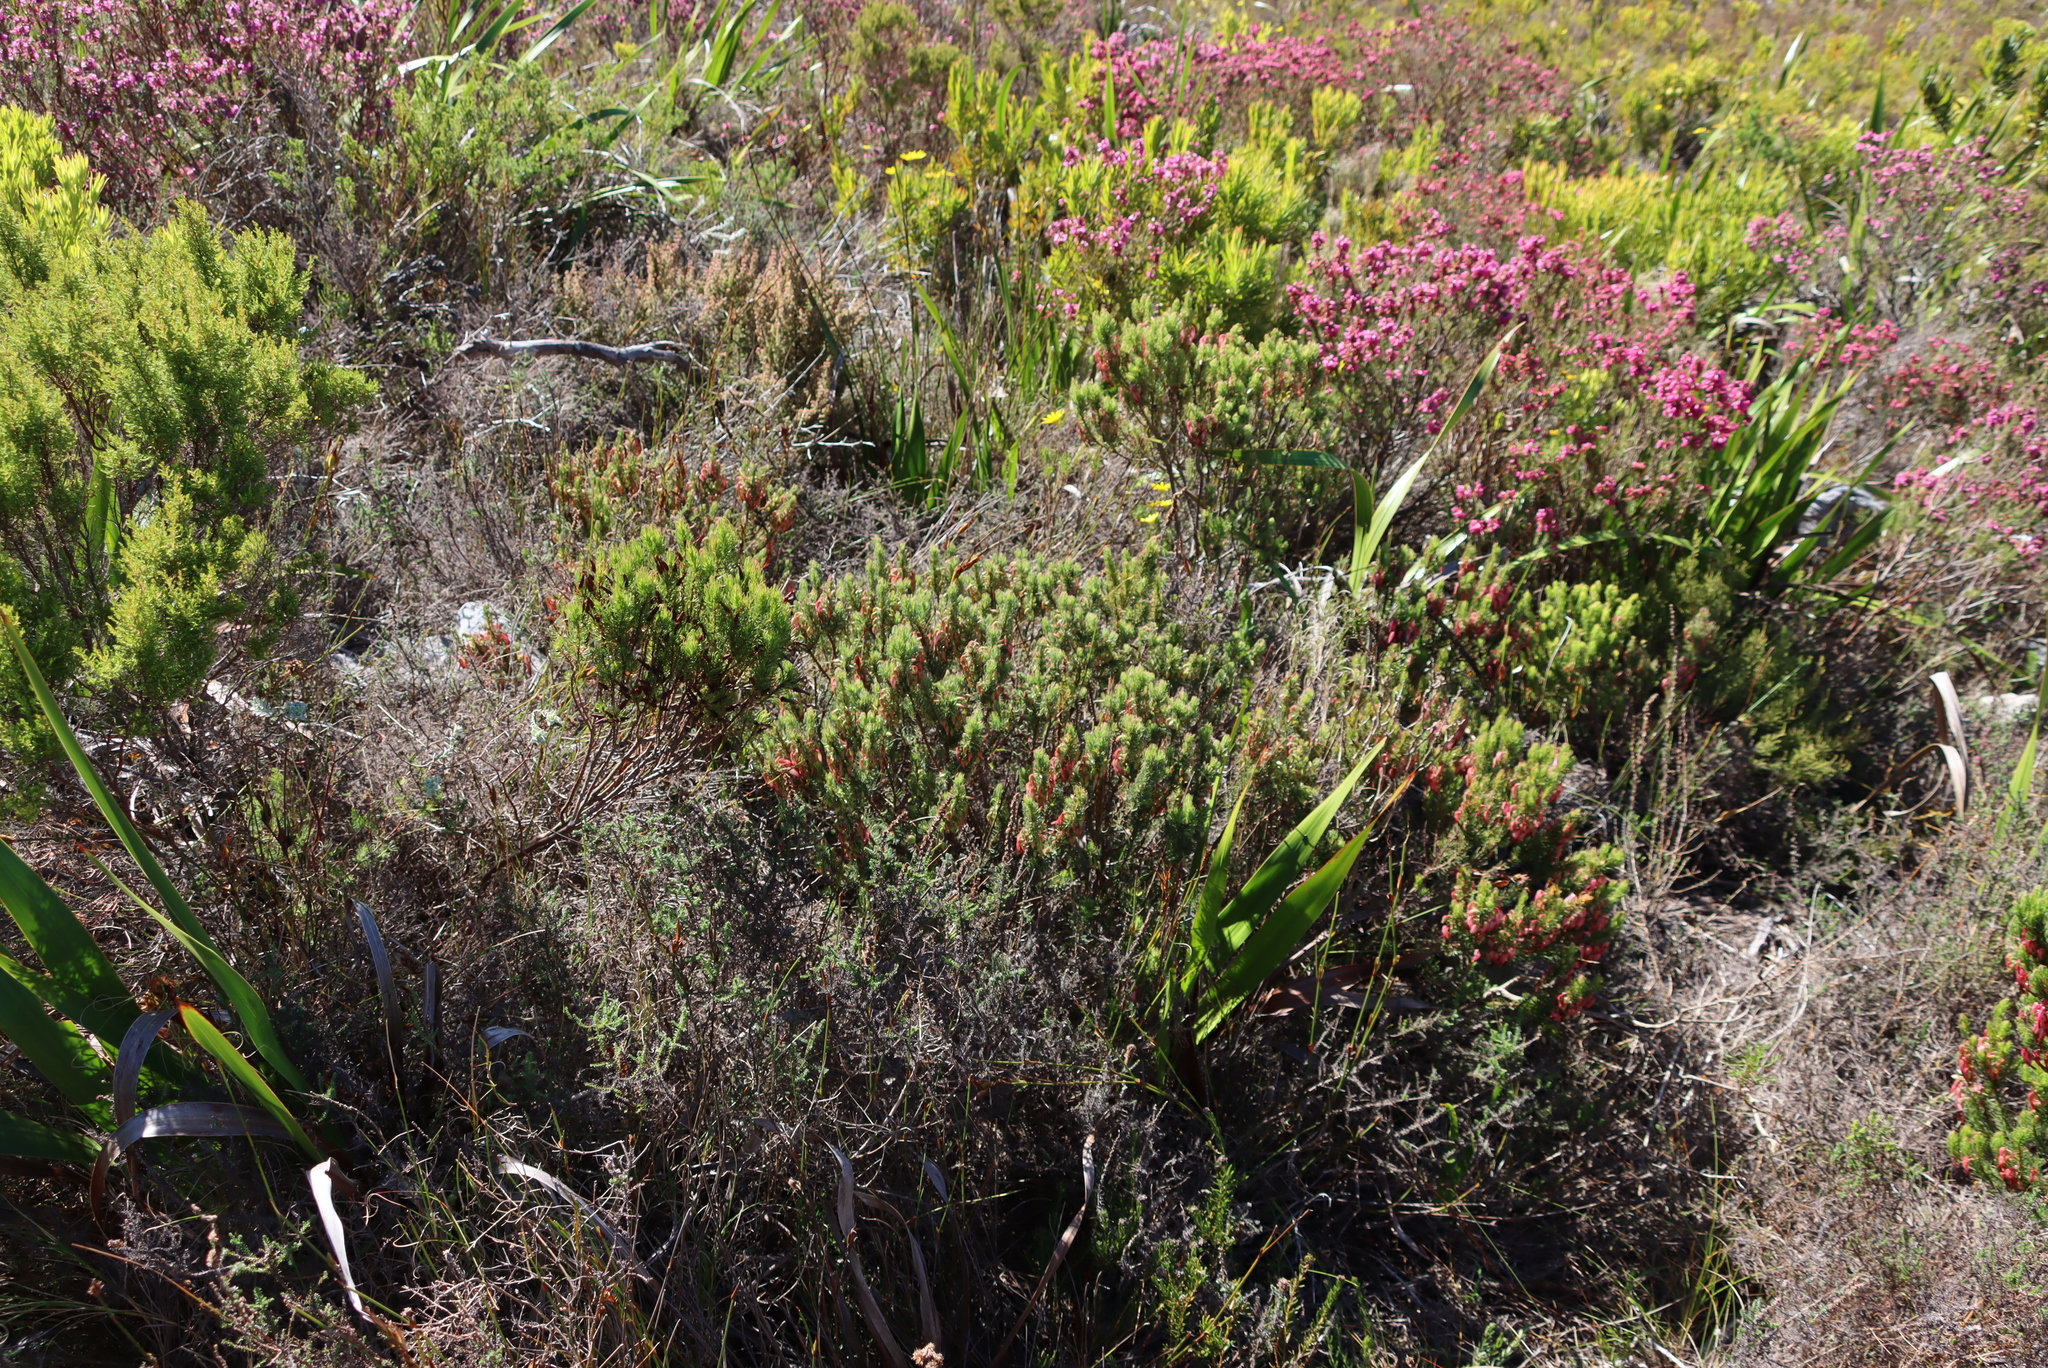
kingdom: Plantae
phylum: Tracheophyta
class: Magnoliopsida
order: Ericales
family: Ericaceae
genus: Erica
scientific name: Erica plukenetii
